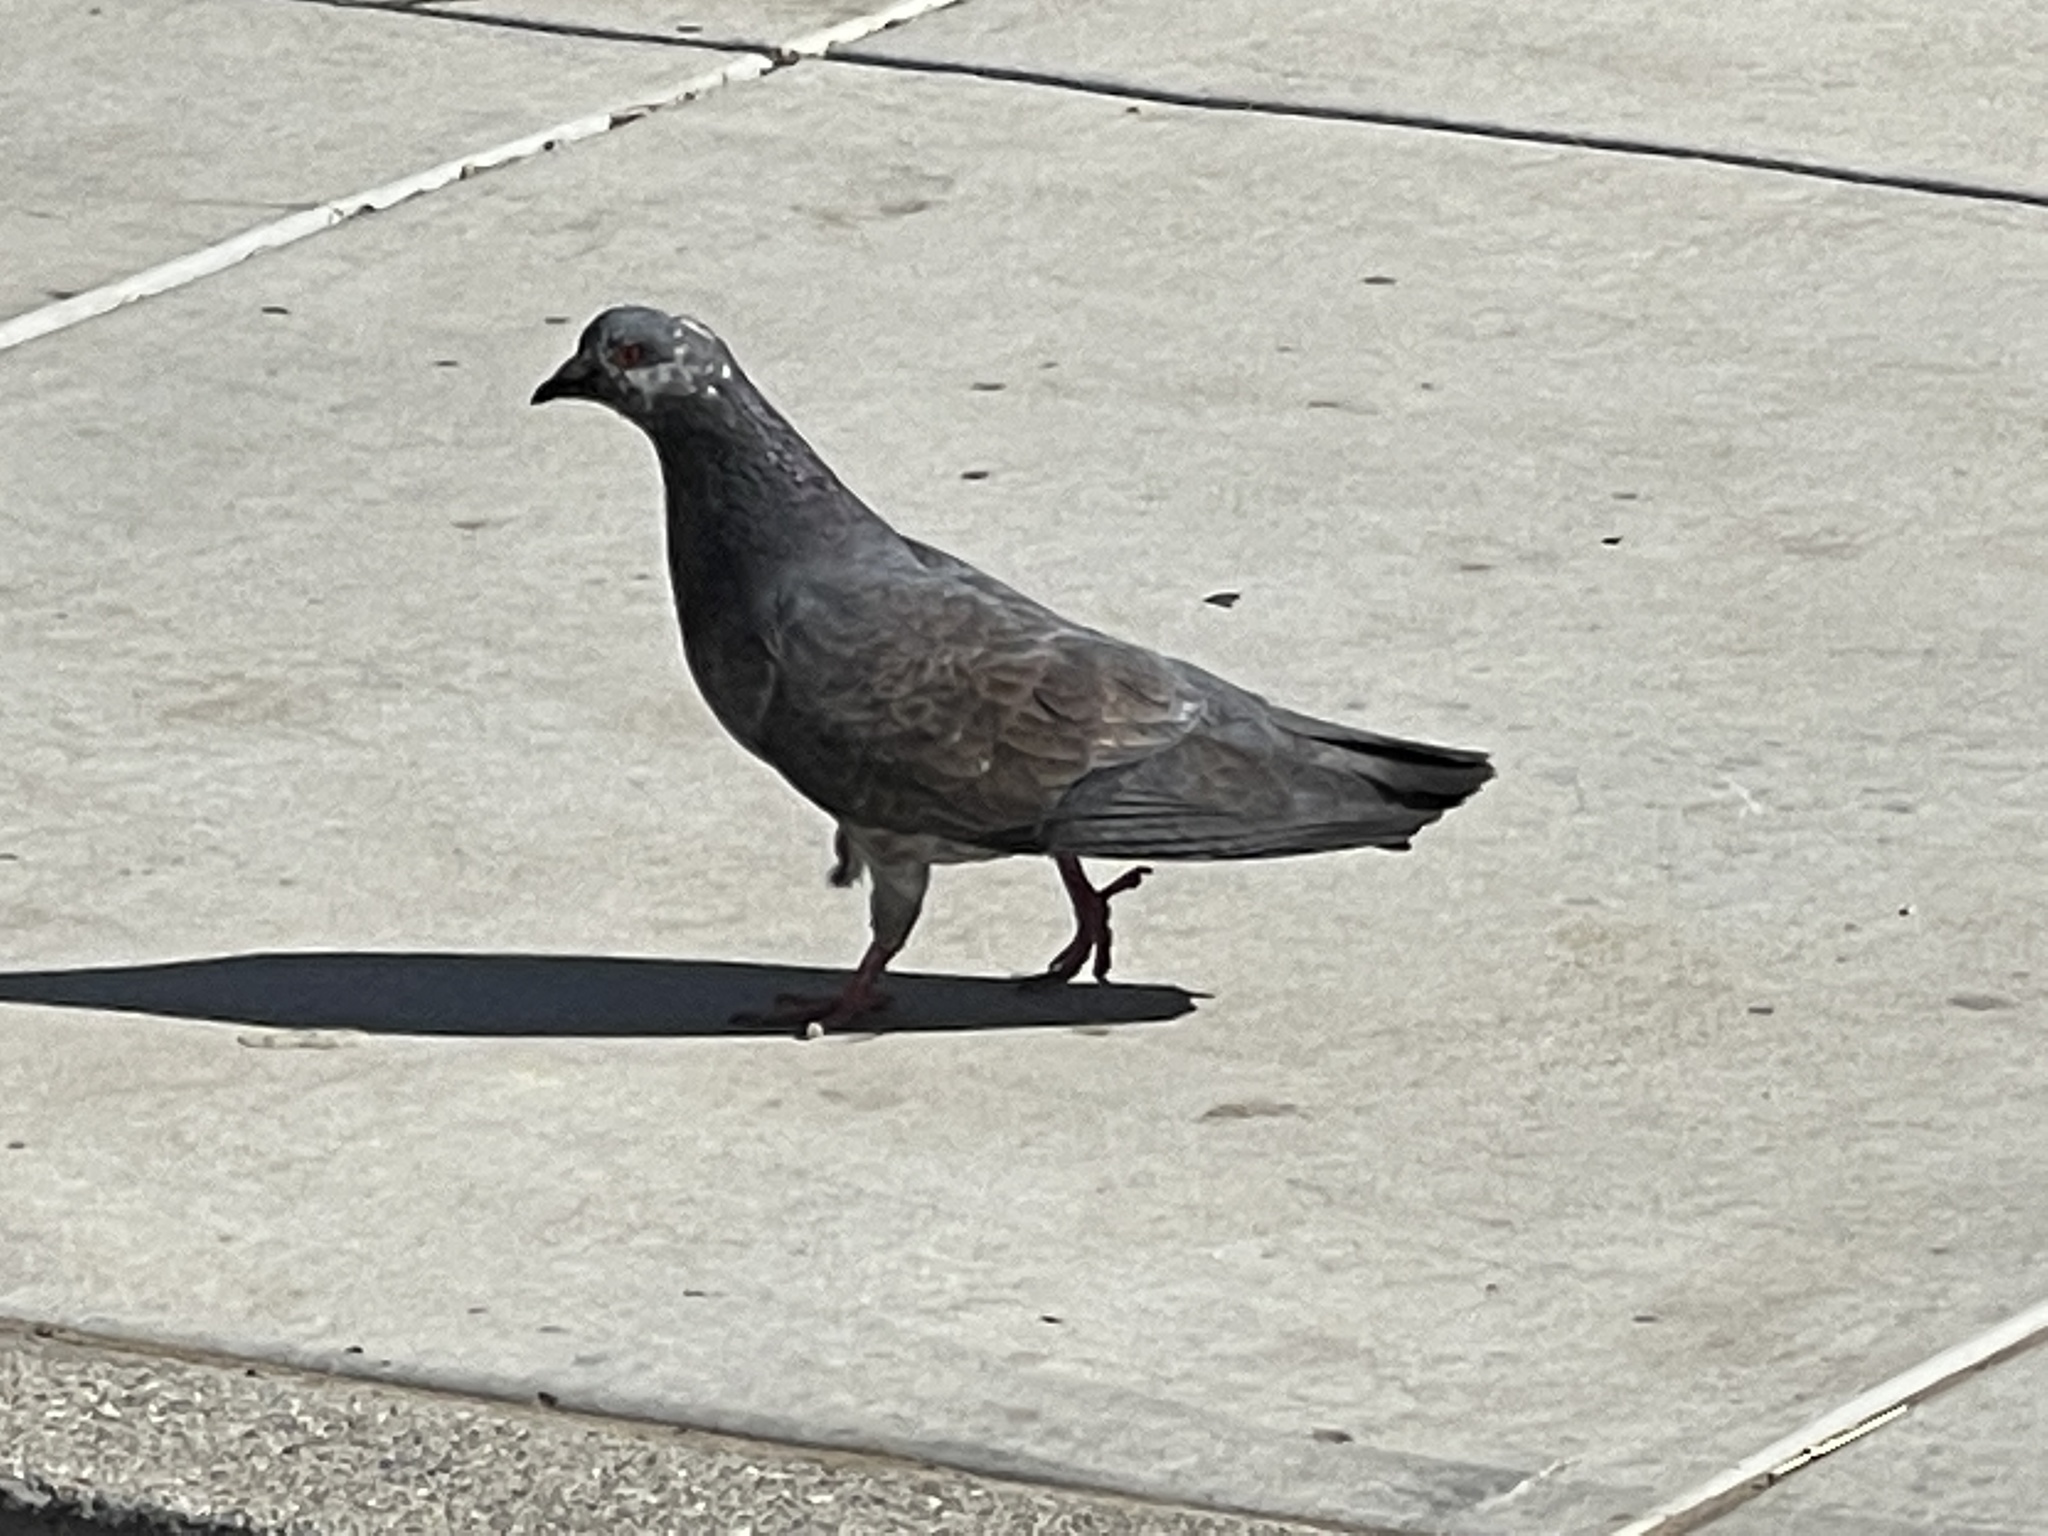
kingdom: Animalia
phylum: Chordata
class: Aves
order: Columbiformes
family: Columbidae
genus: Columba
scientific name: Columba livia
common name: Rock pigeon
